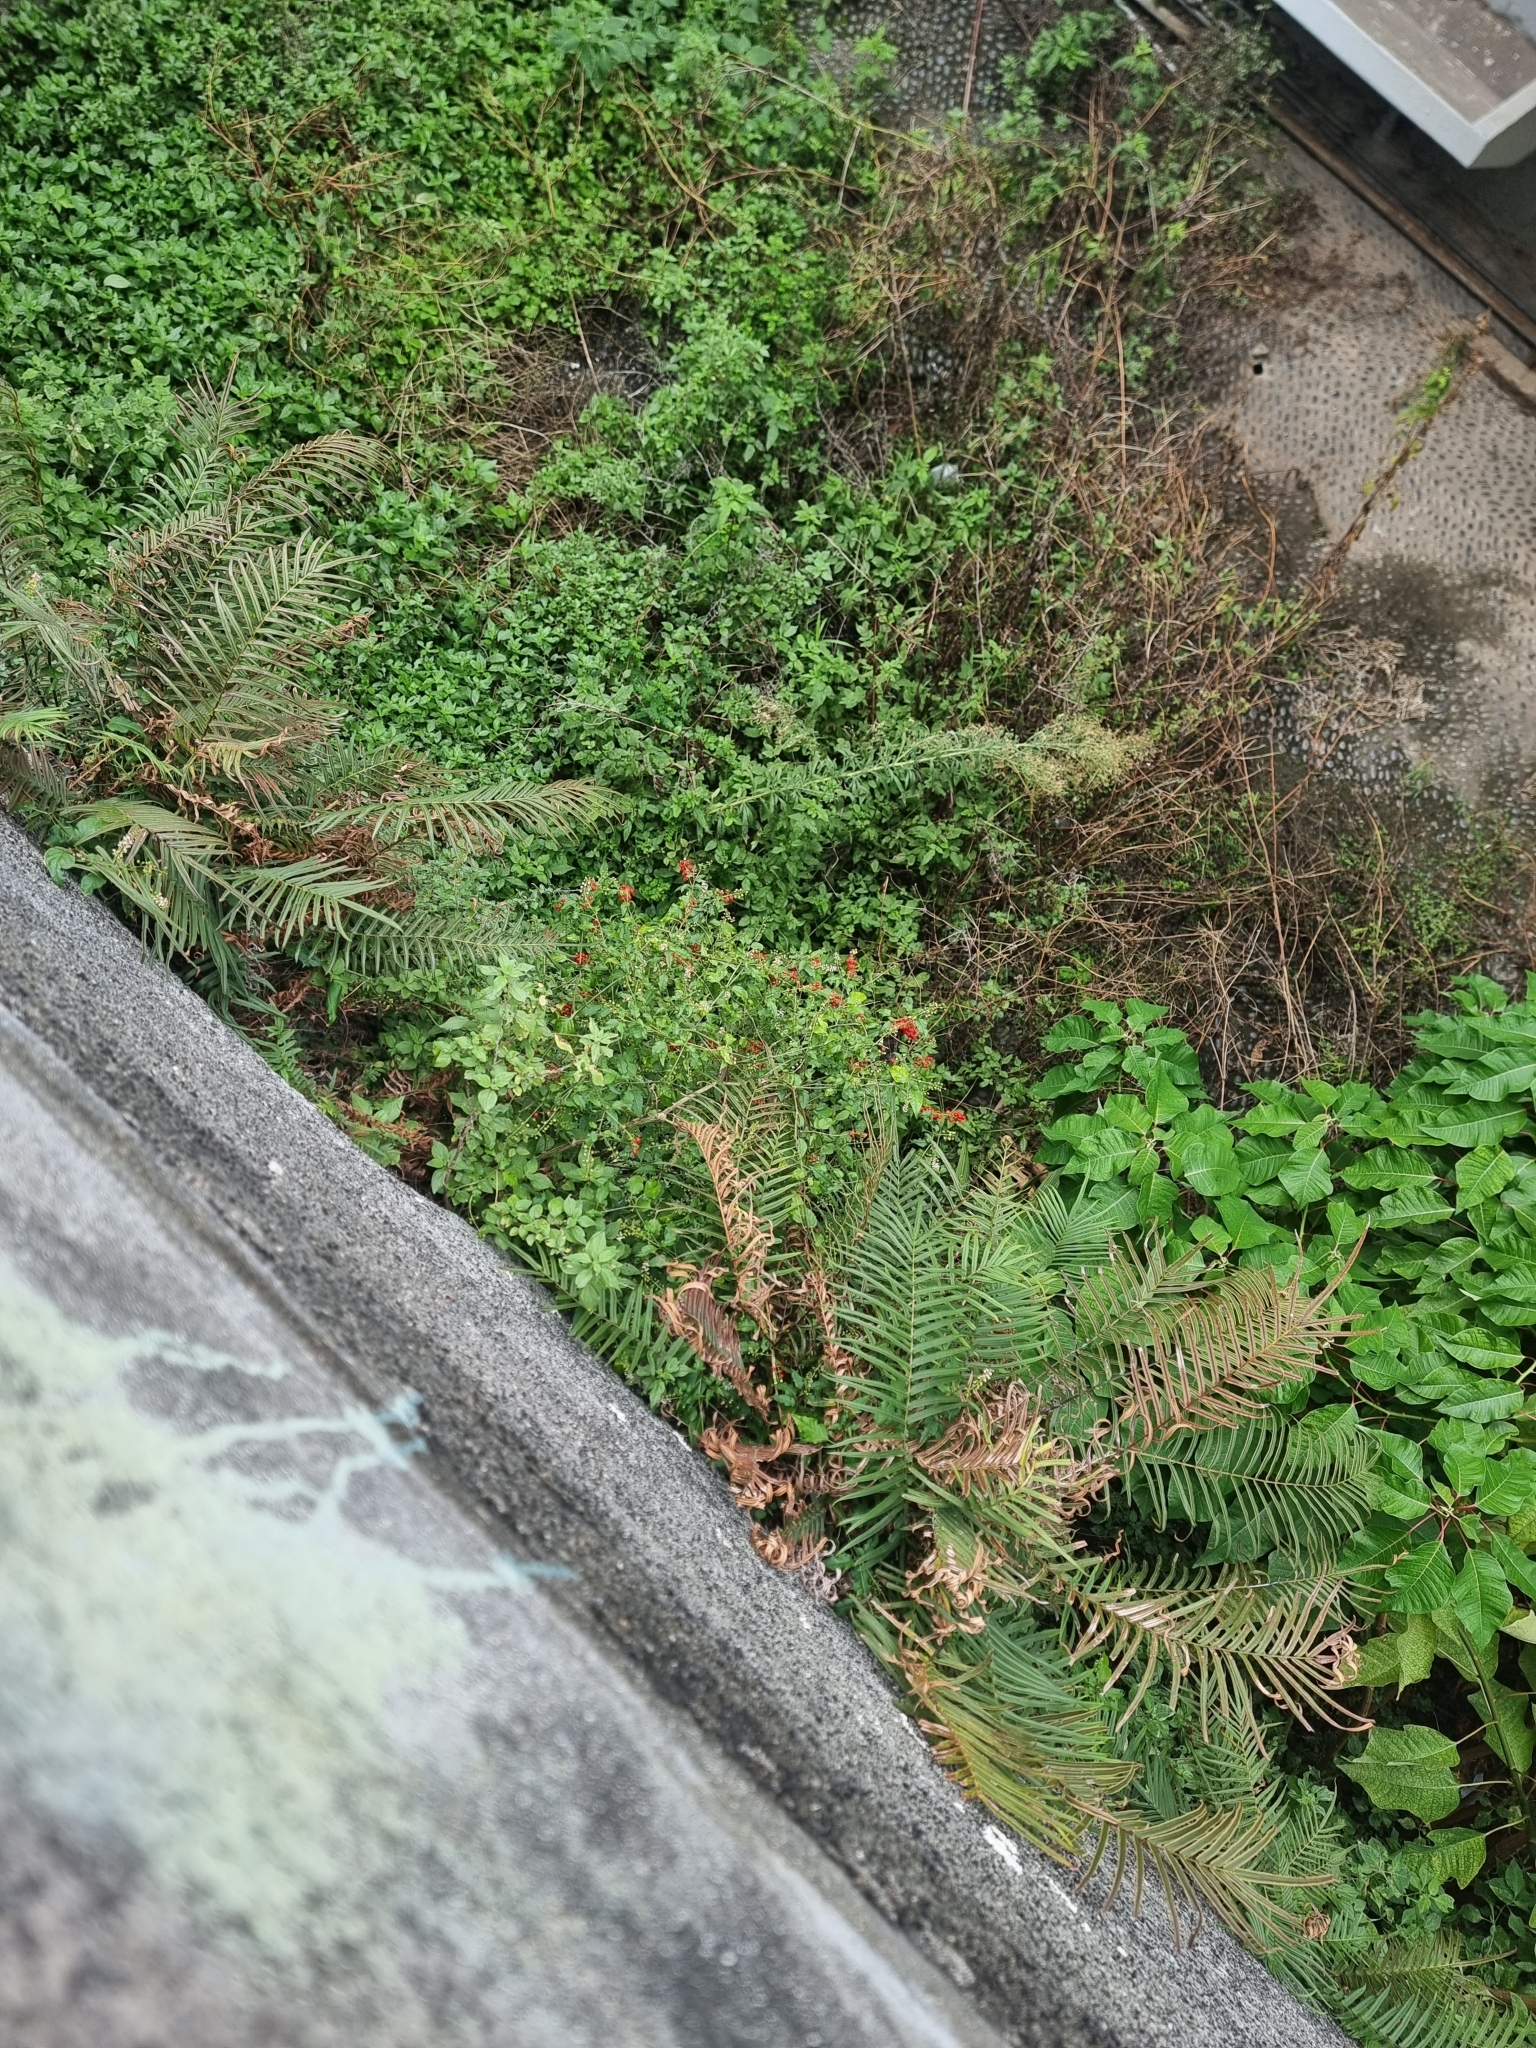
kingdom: Plantae
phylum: Tracheophyta
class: Magnoliopsida
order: Caryophyllales
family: Phytolaccaceae
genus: Rivina
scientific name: Rivina humilis
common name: Rougeplant
